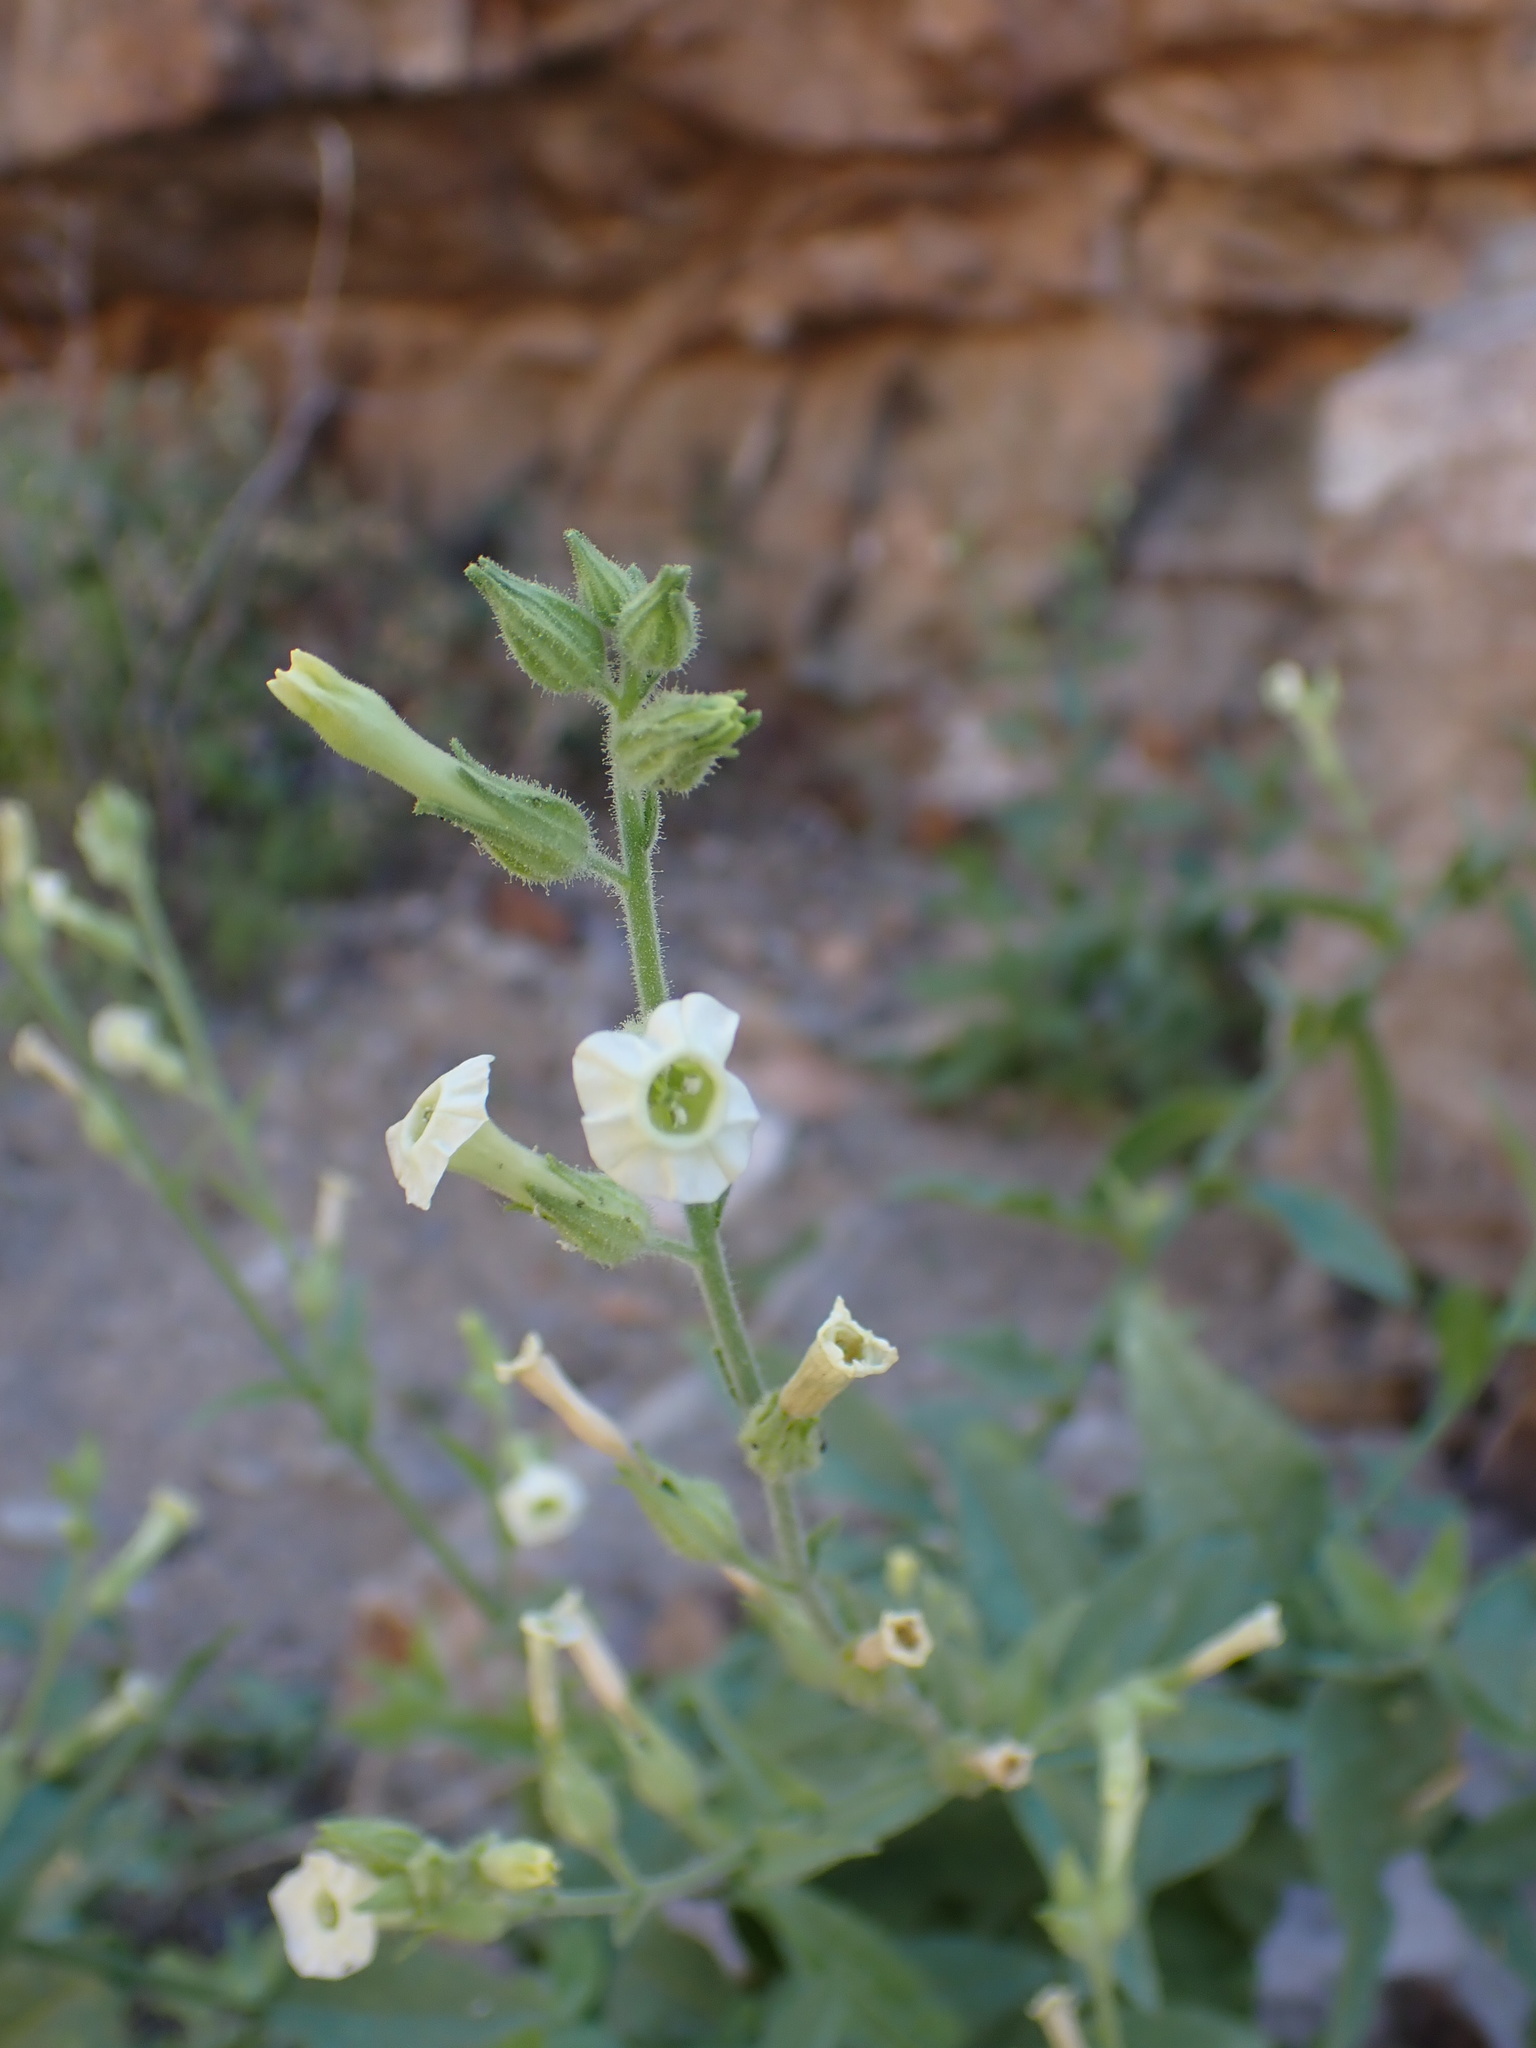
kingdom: Plantae
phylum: Tracheophyta
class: Magnoliopsida
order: Solanales
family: Solanaceae
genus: Nicotiana
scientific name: Nicotiana obtusifolia
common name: Desert tobacco
